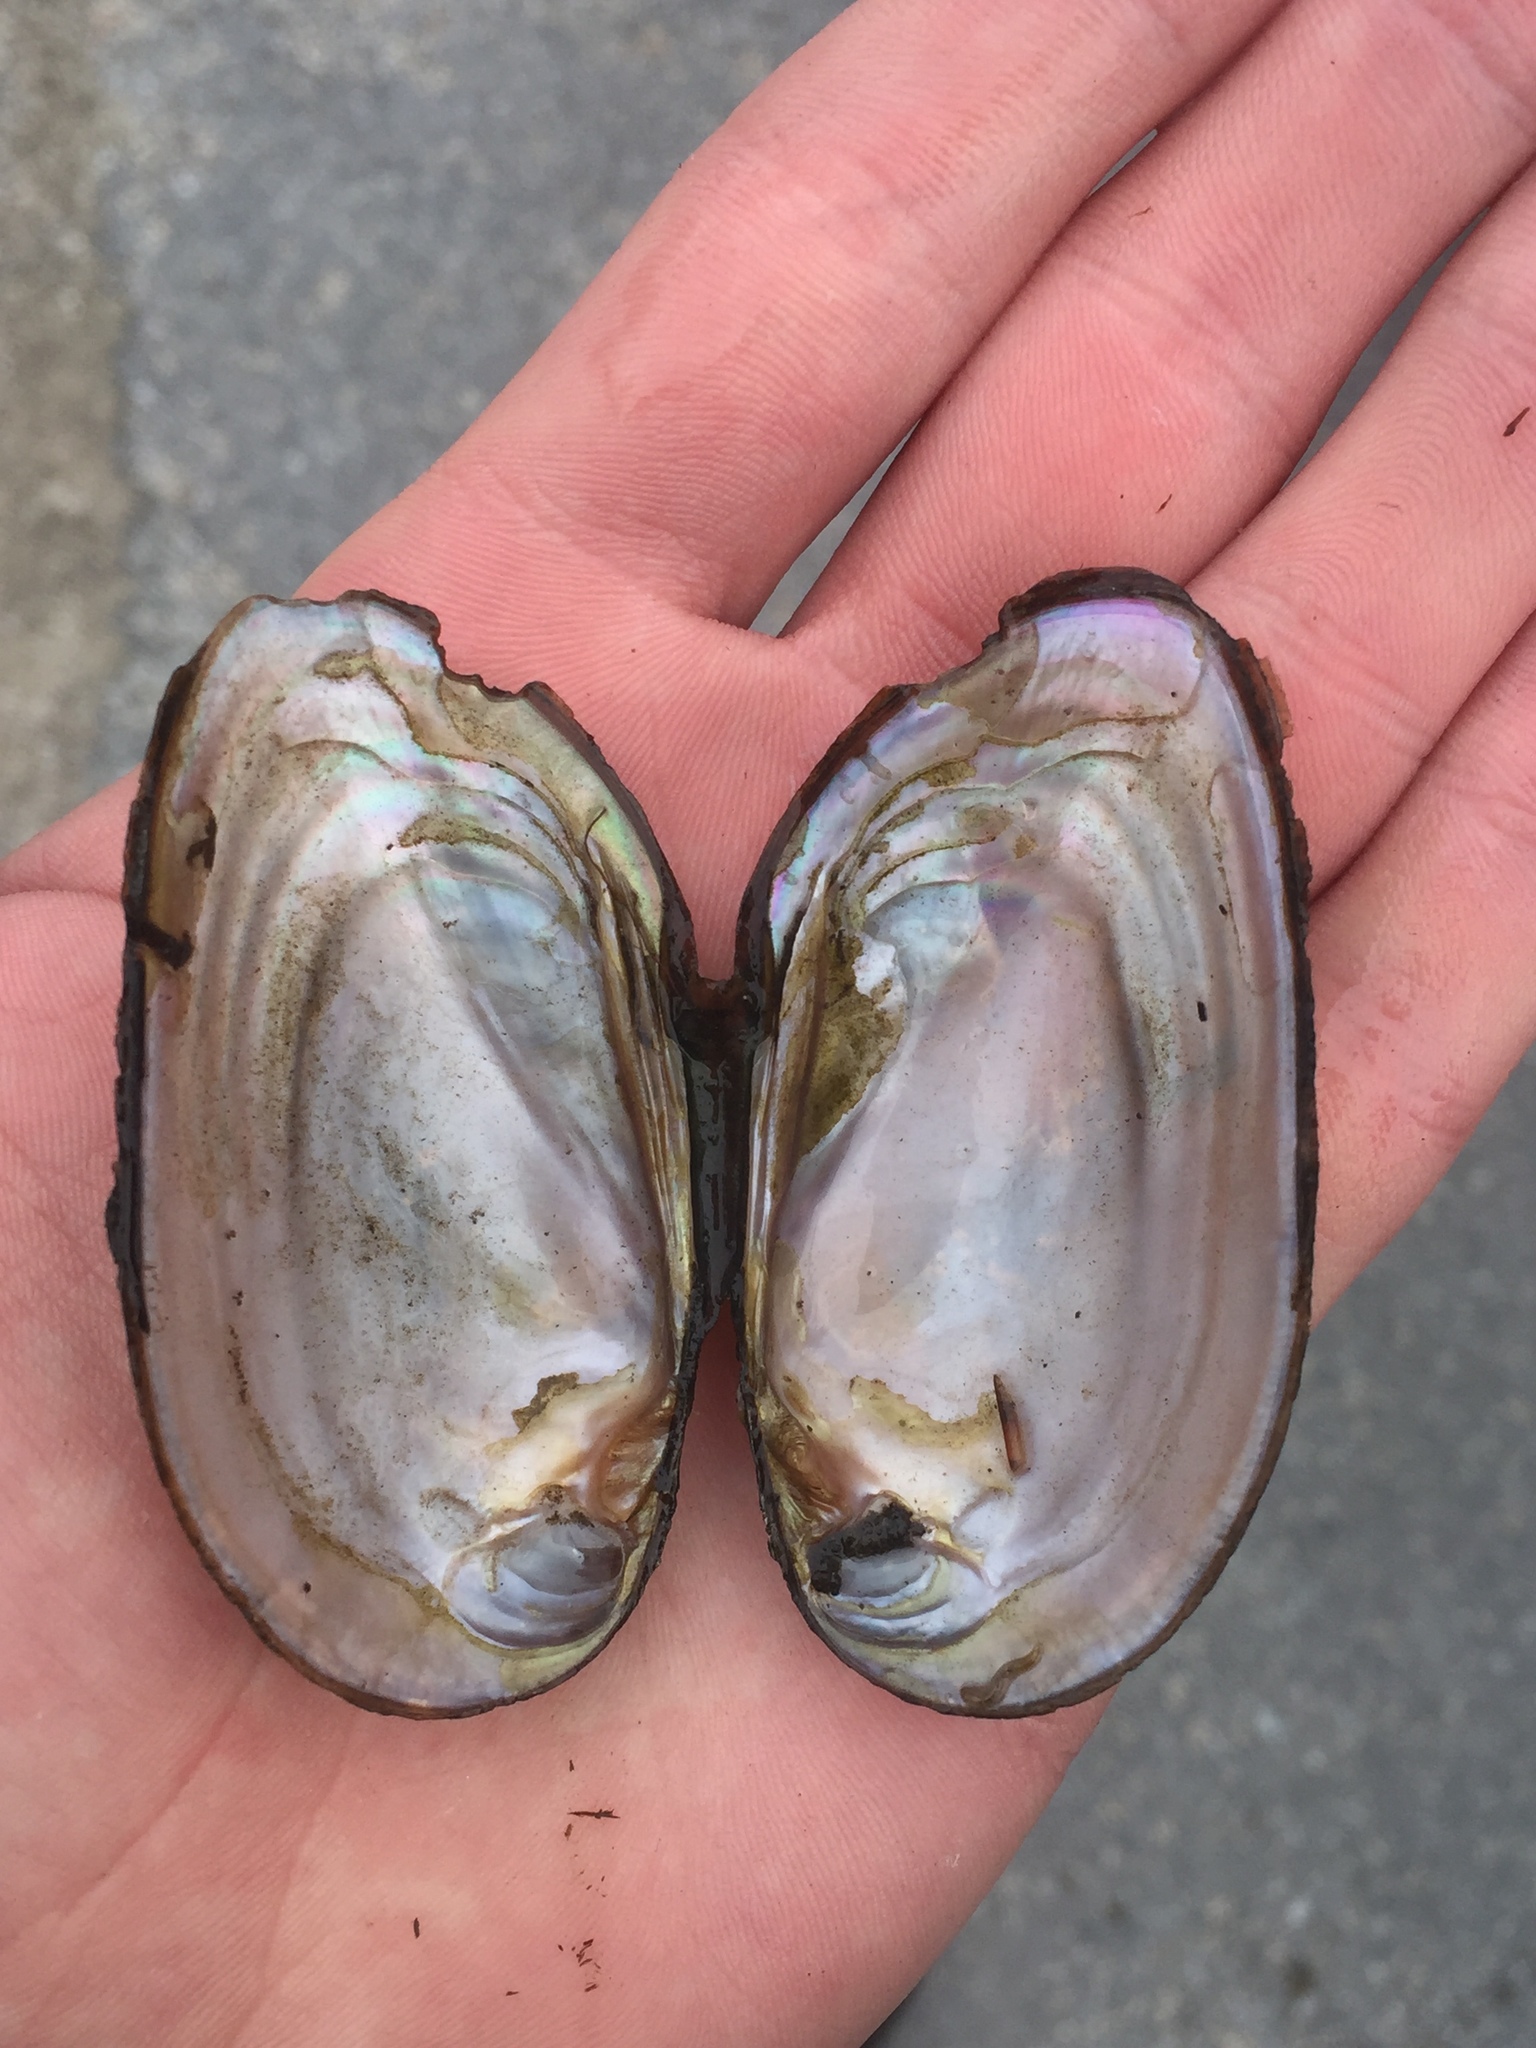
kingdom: Animalia
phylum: Mollusca
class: Bivalvia
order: Unionida
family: Unionidae
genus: Elliptio
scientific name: Elliptio complanata
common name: Eastern elliptio
